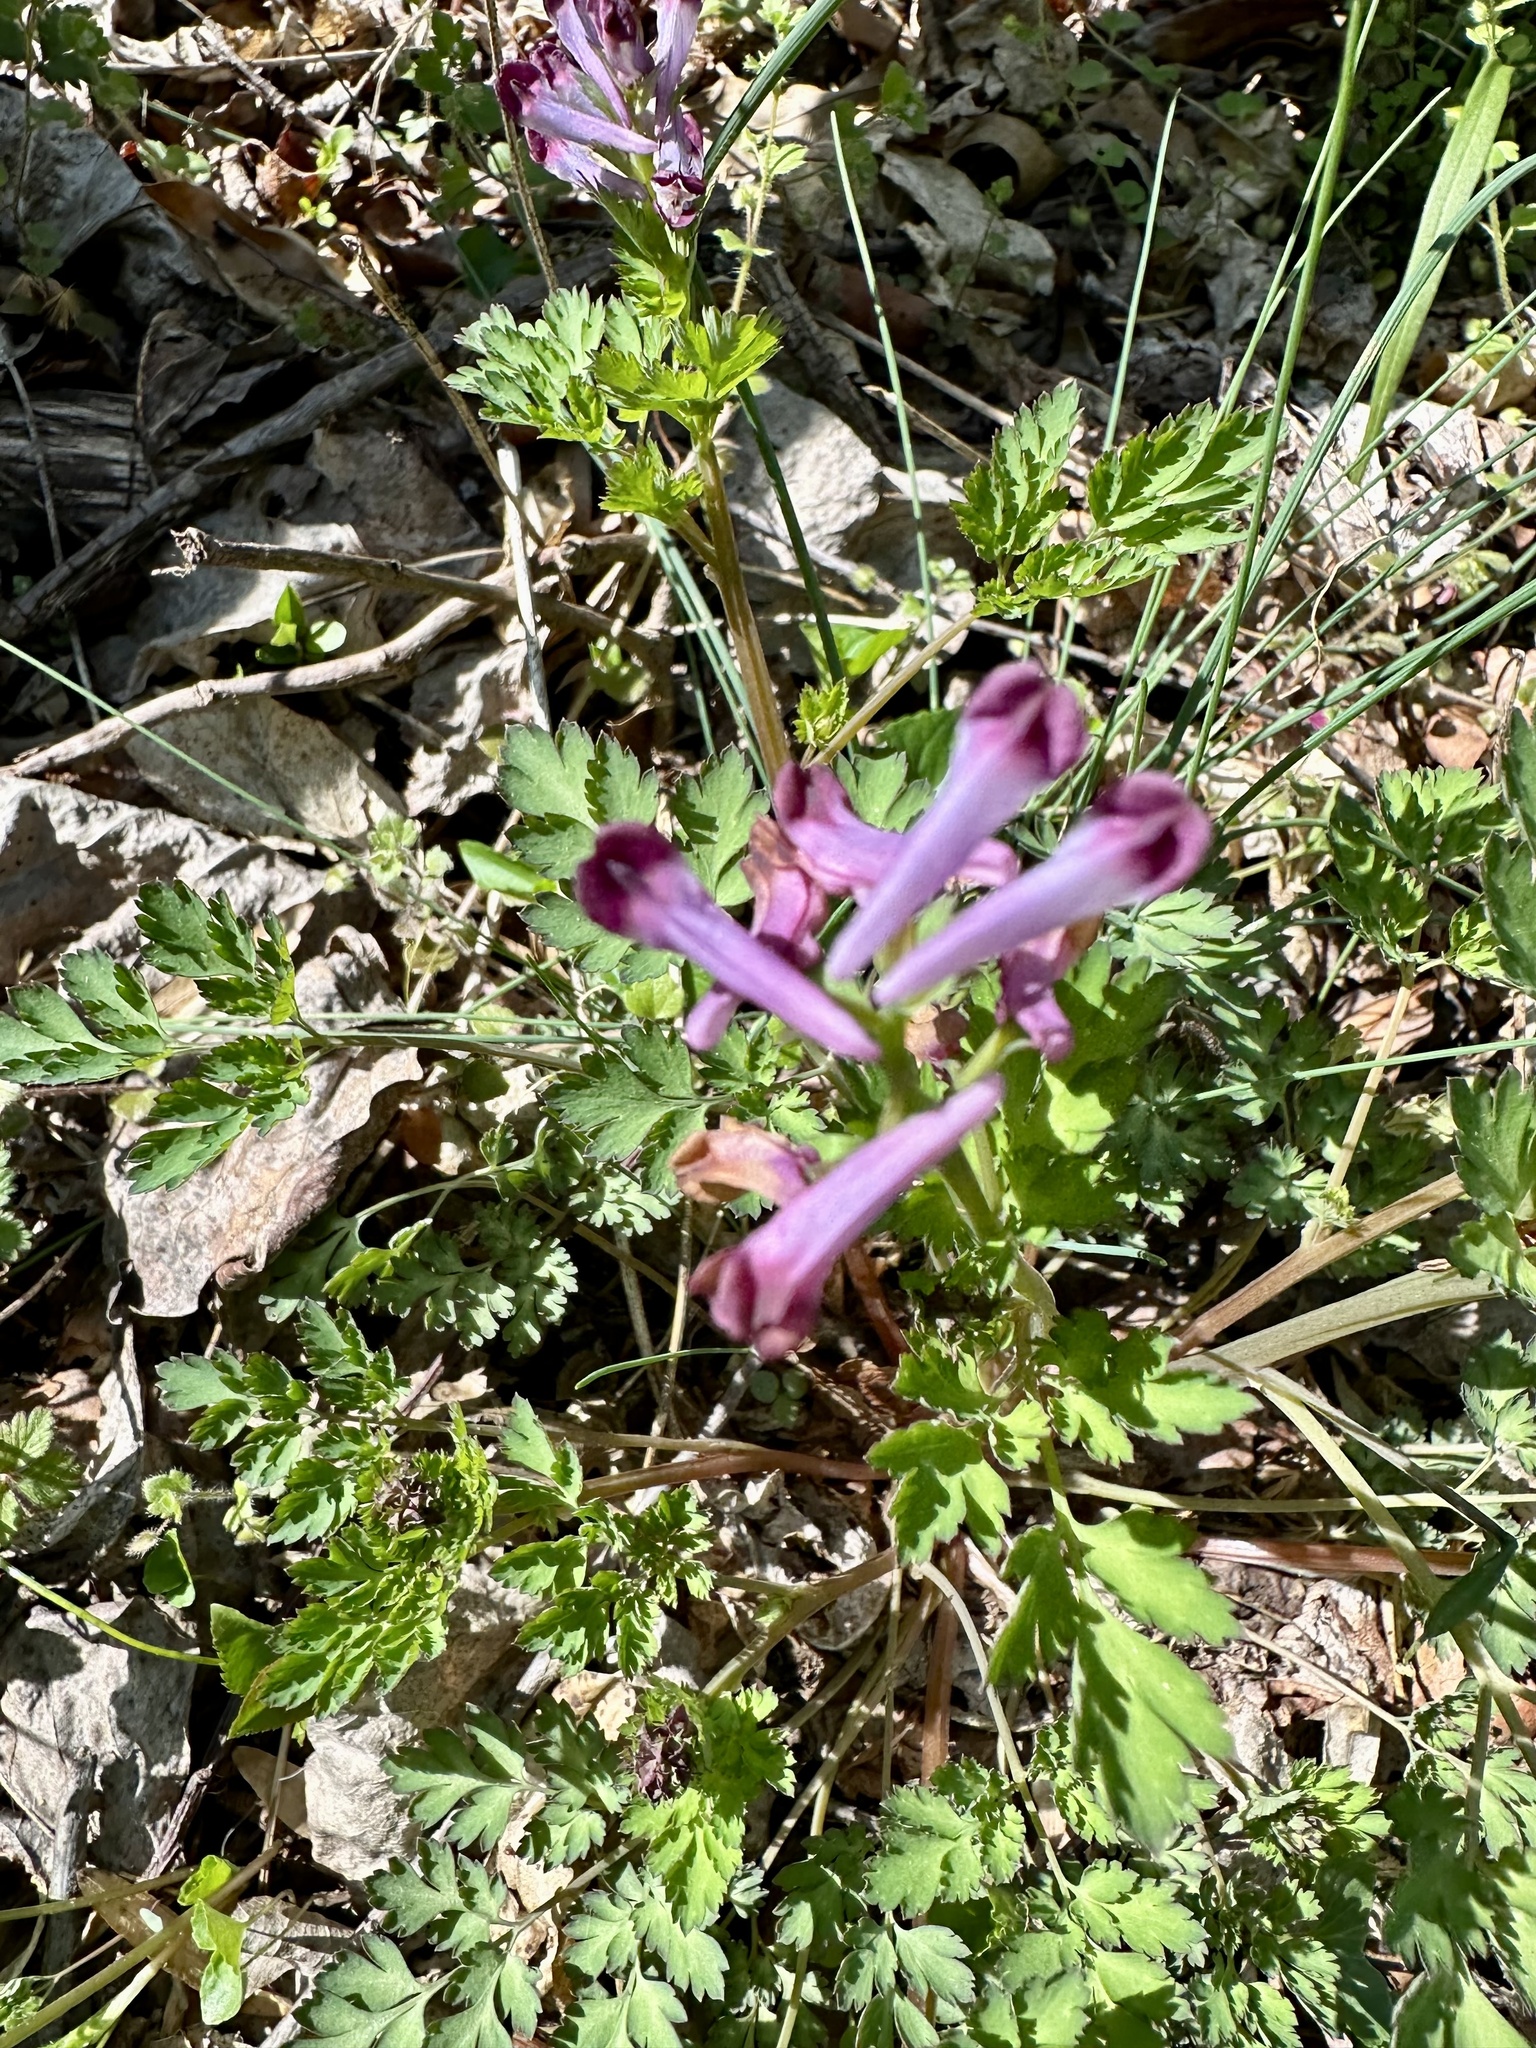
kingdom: Plantae
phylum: Tracheophyta
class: Magnoliopsida
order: Ranunculales
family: Papaveraceae
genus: Corydalis
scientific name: Corydalis incisa
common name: Incised fumewort
